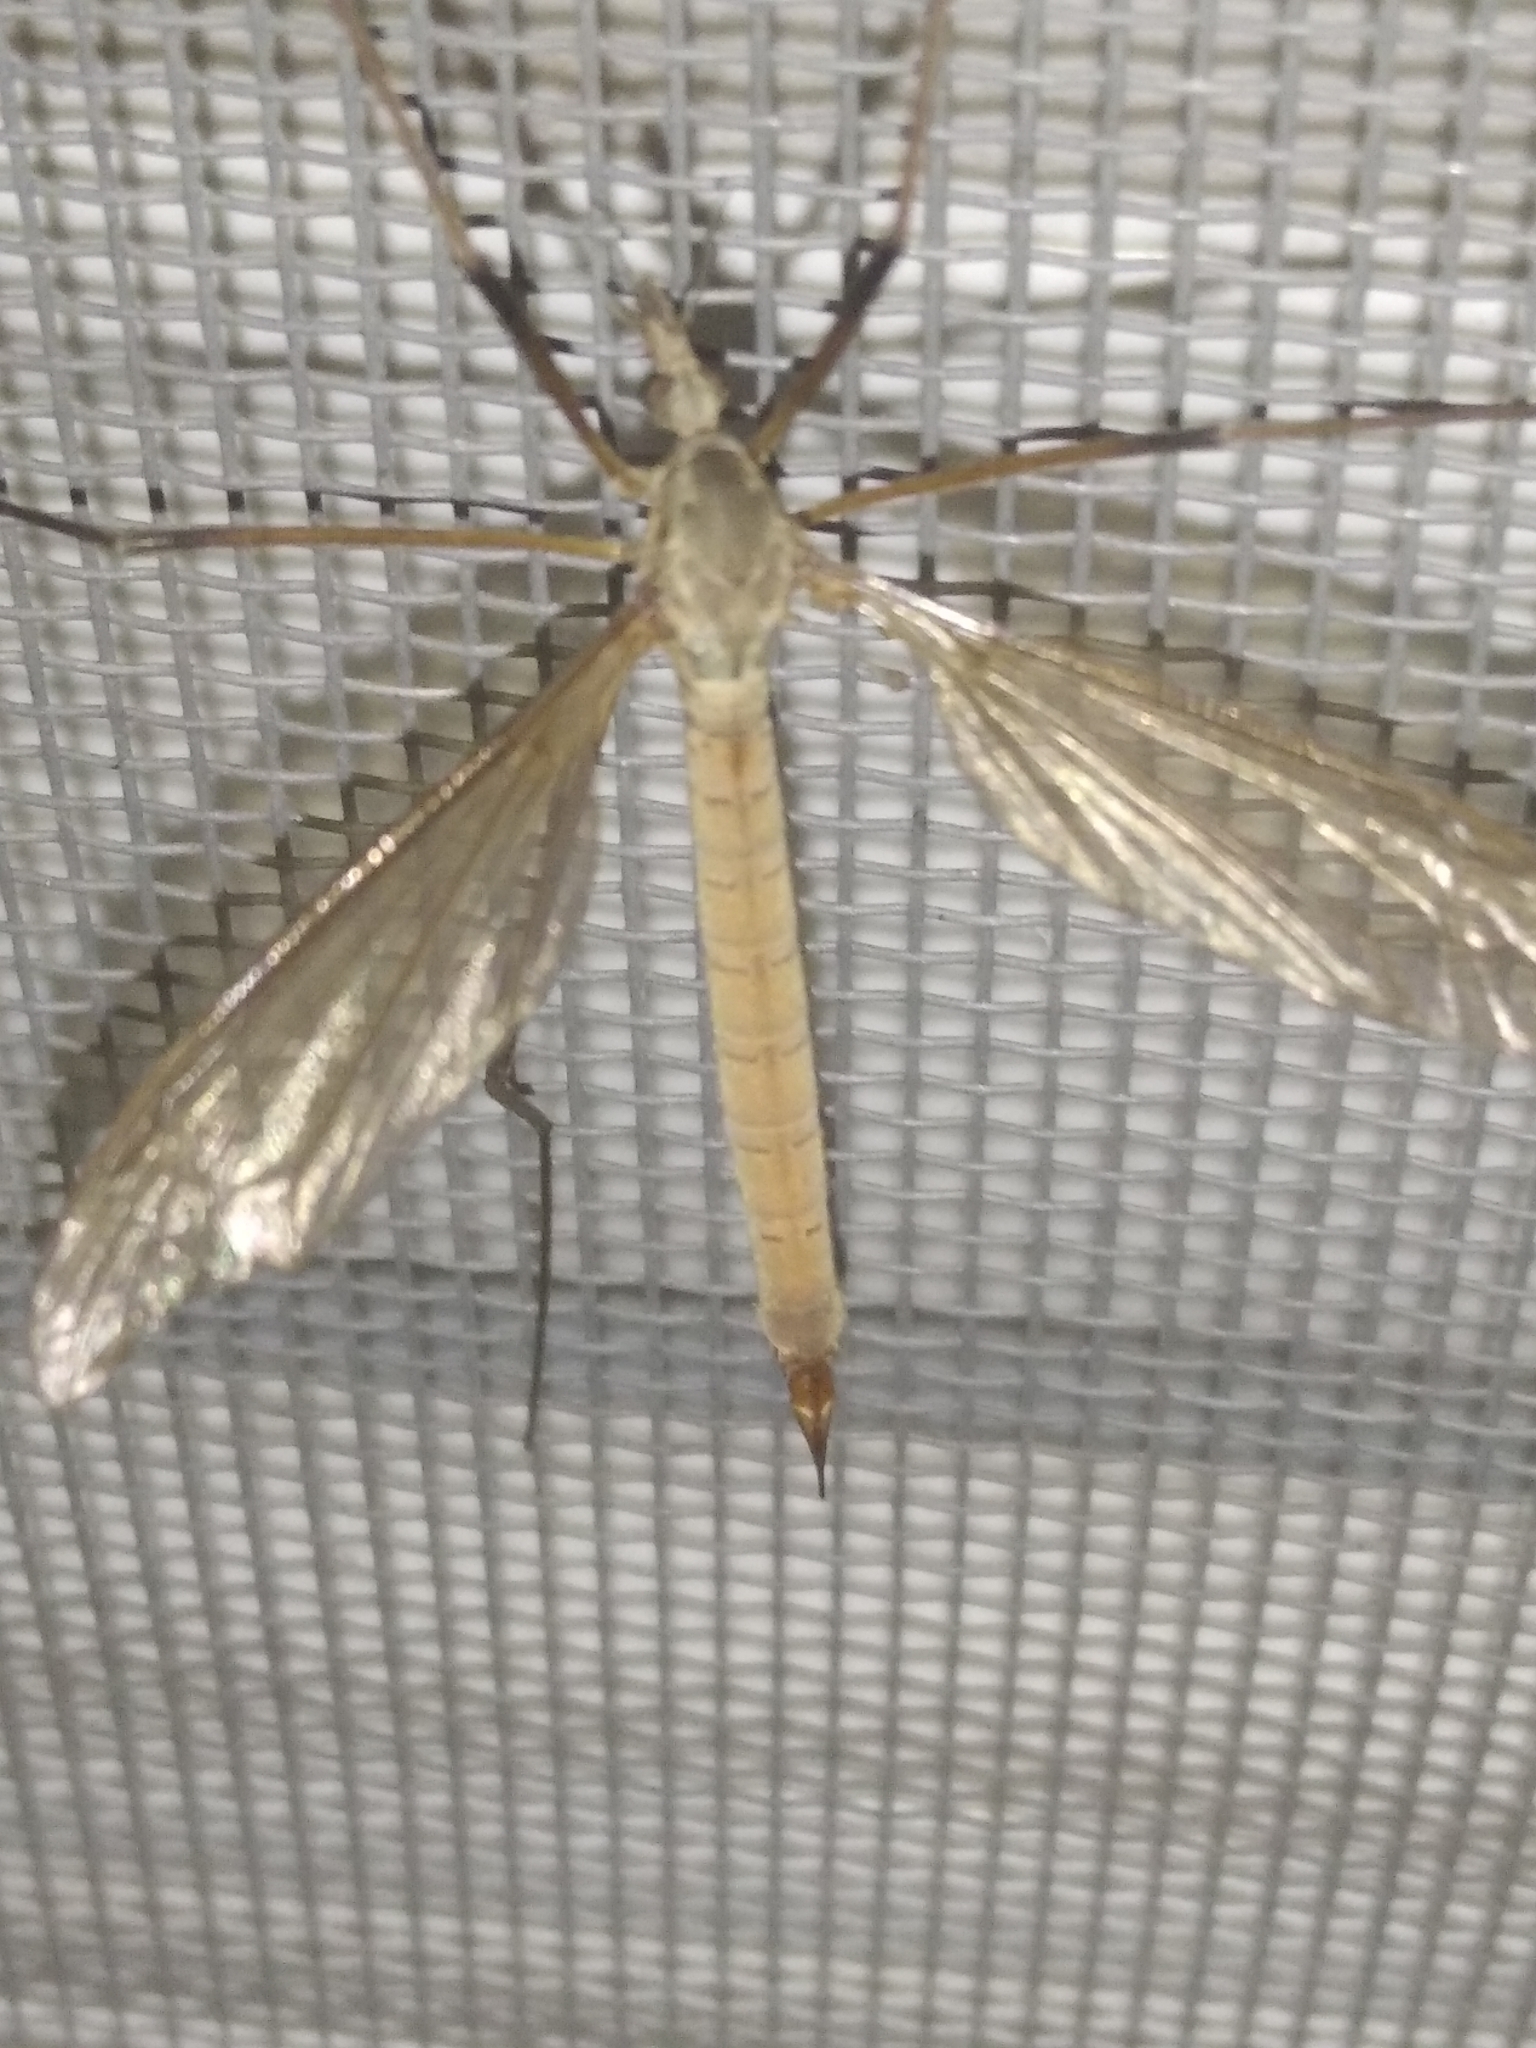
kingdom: Animalia
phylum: Arthropoda
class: Insecta
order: Diptera
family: Tipulidae
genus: Tipula
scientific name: Tipula paludosa
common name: European cranefly
